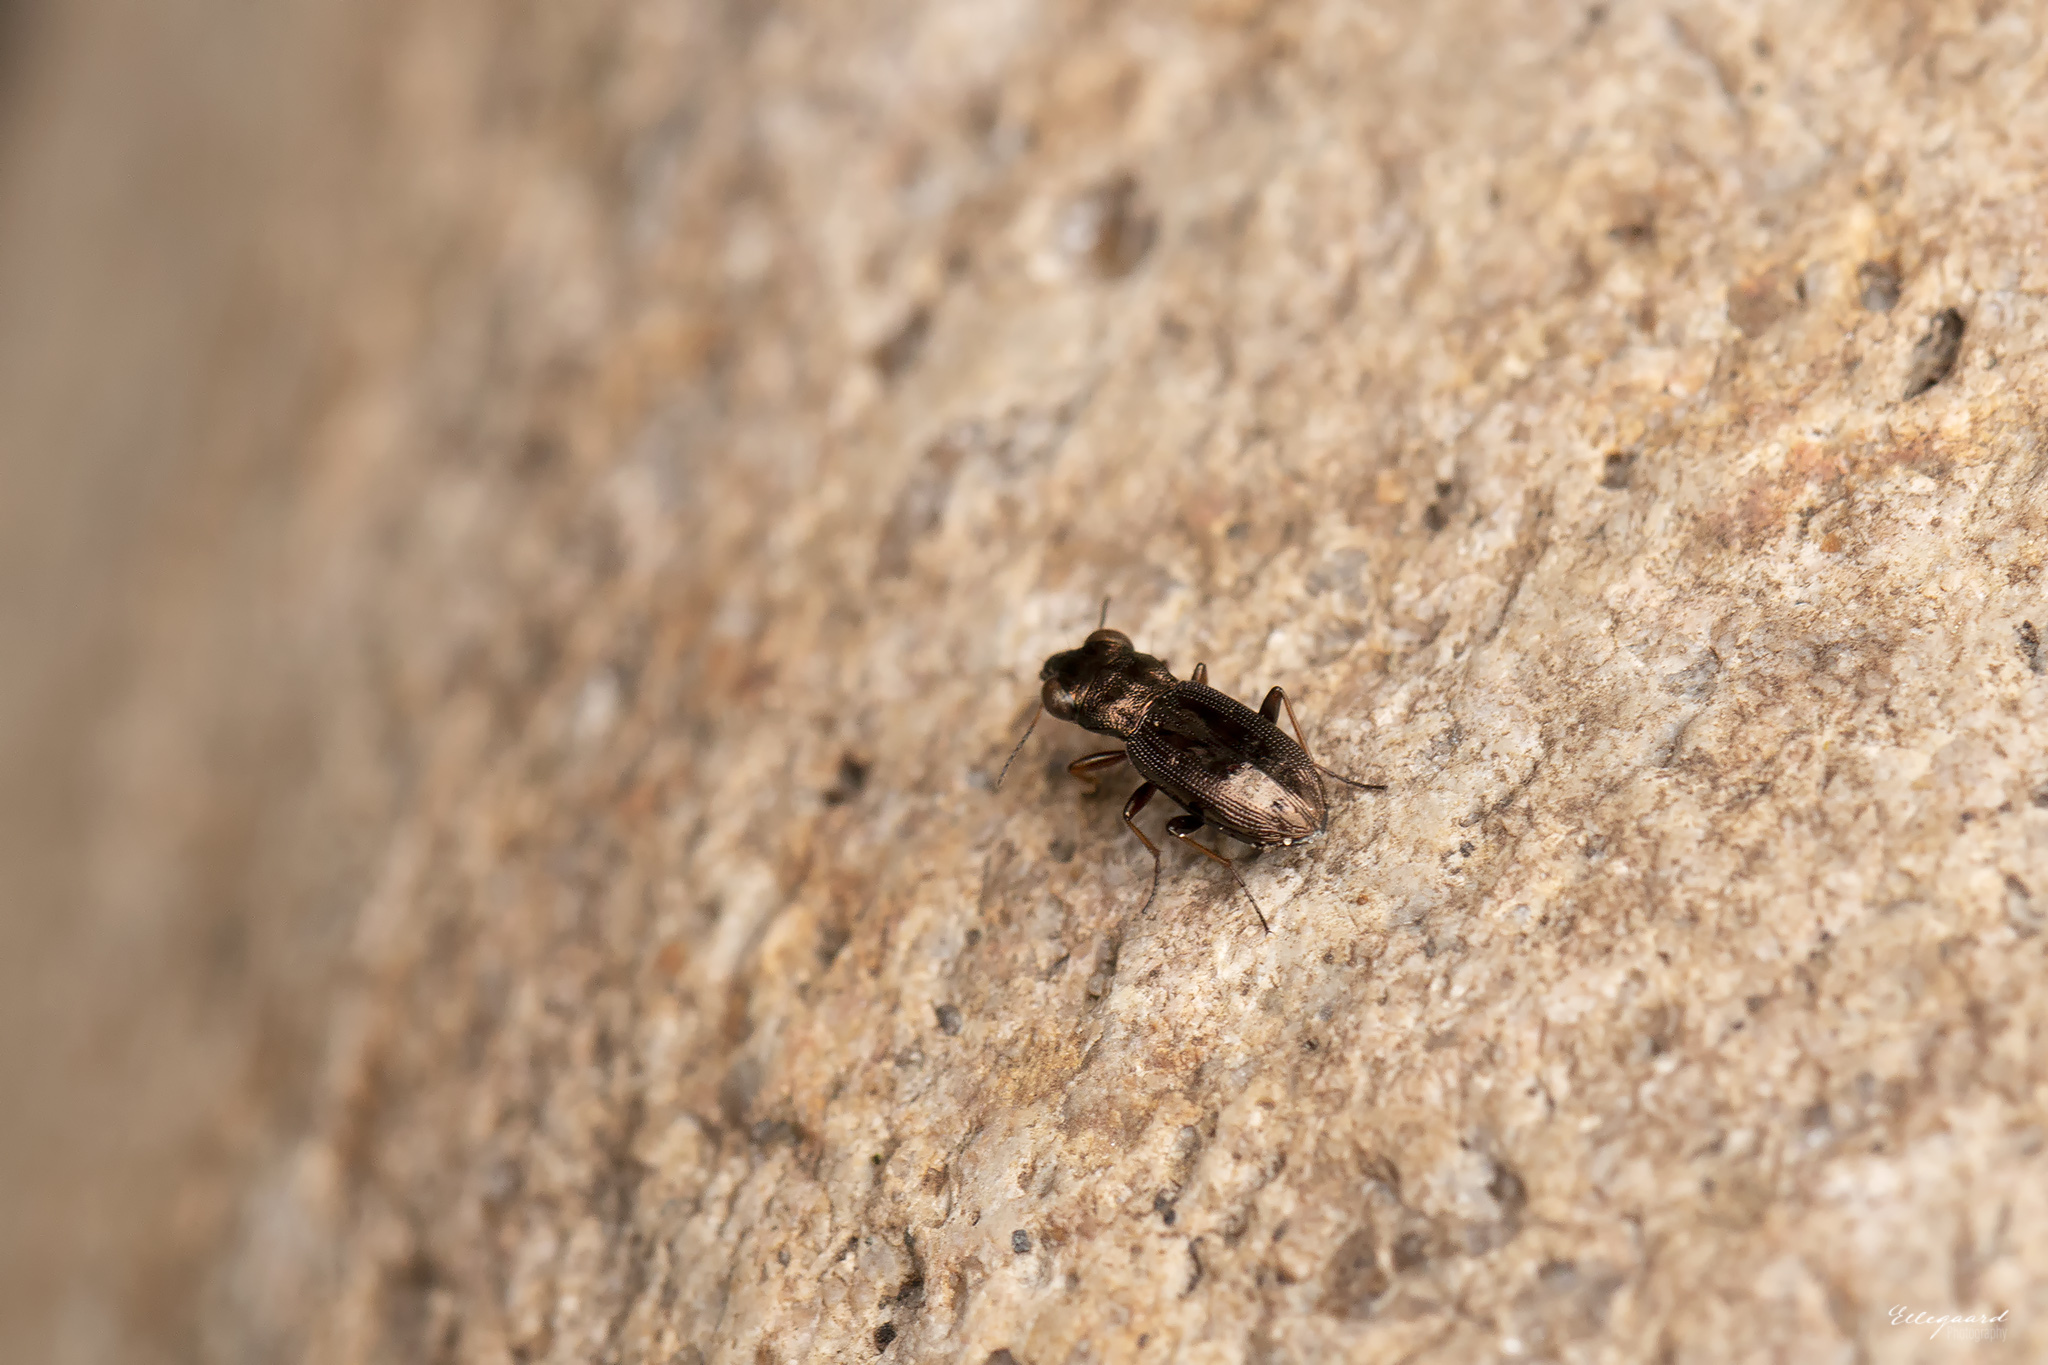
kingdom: Animalia
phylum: Arthropoda
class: Insecta
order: Coleoptera
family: Carabidae
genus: Notiophilus
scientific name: Notiophilus rufipes
